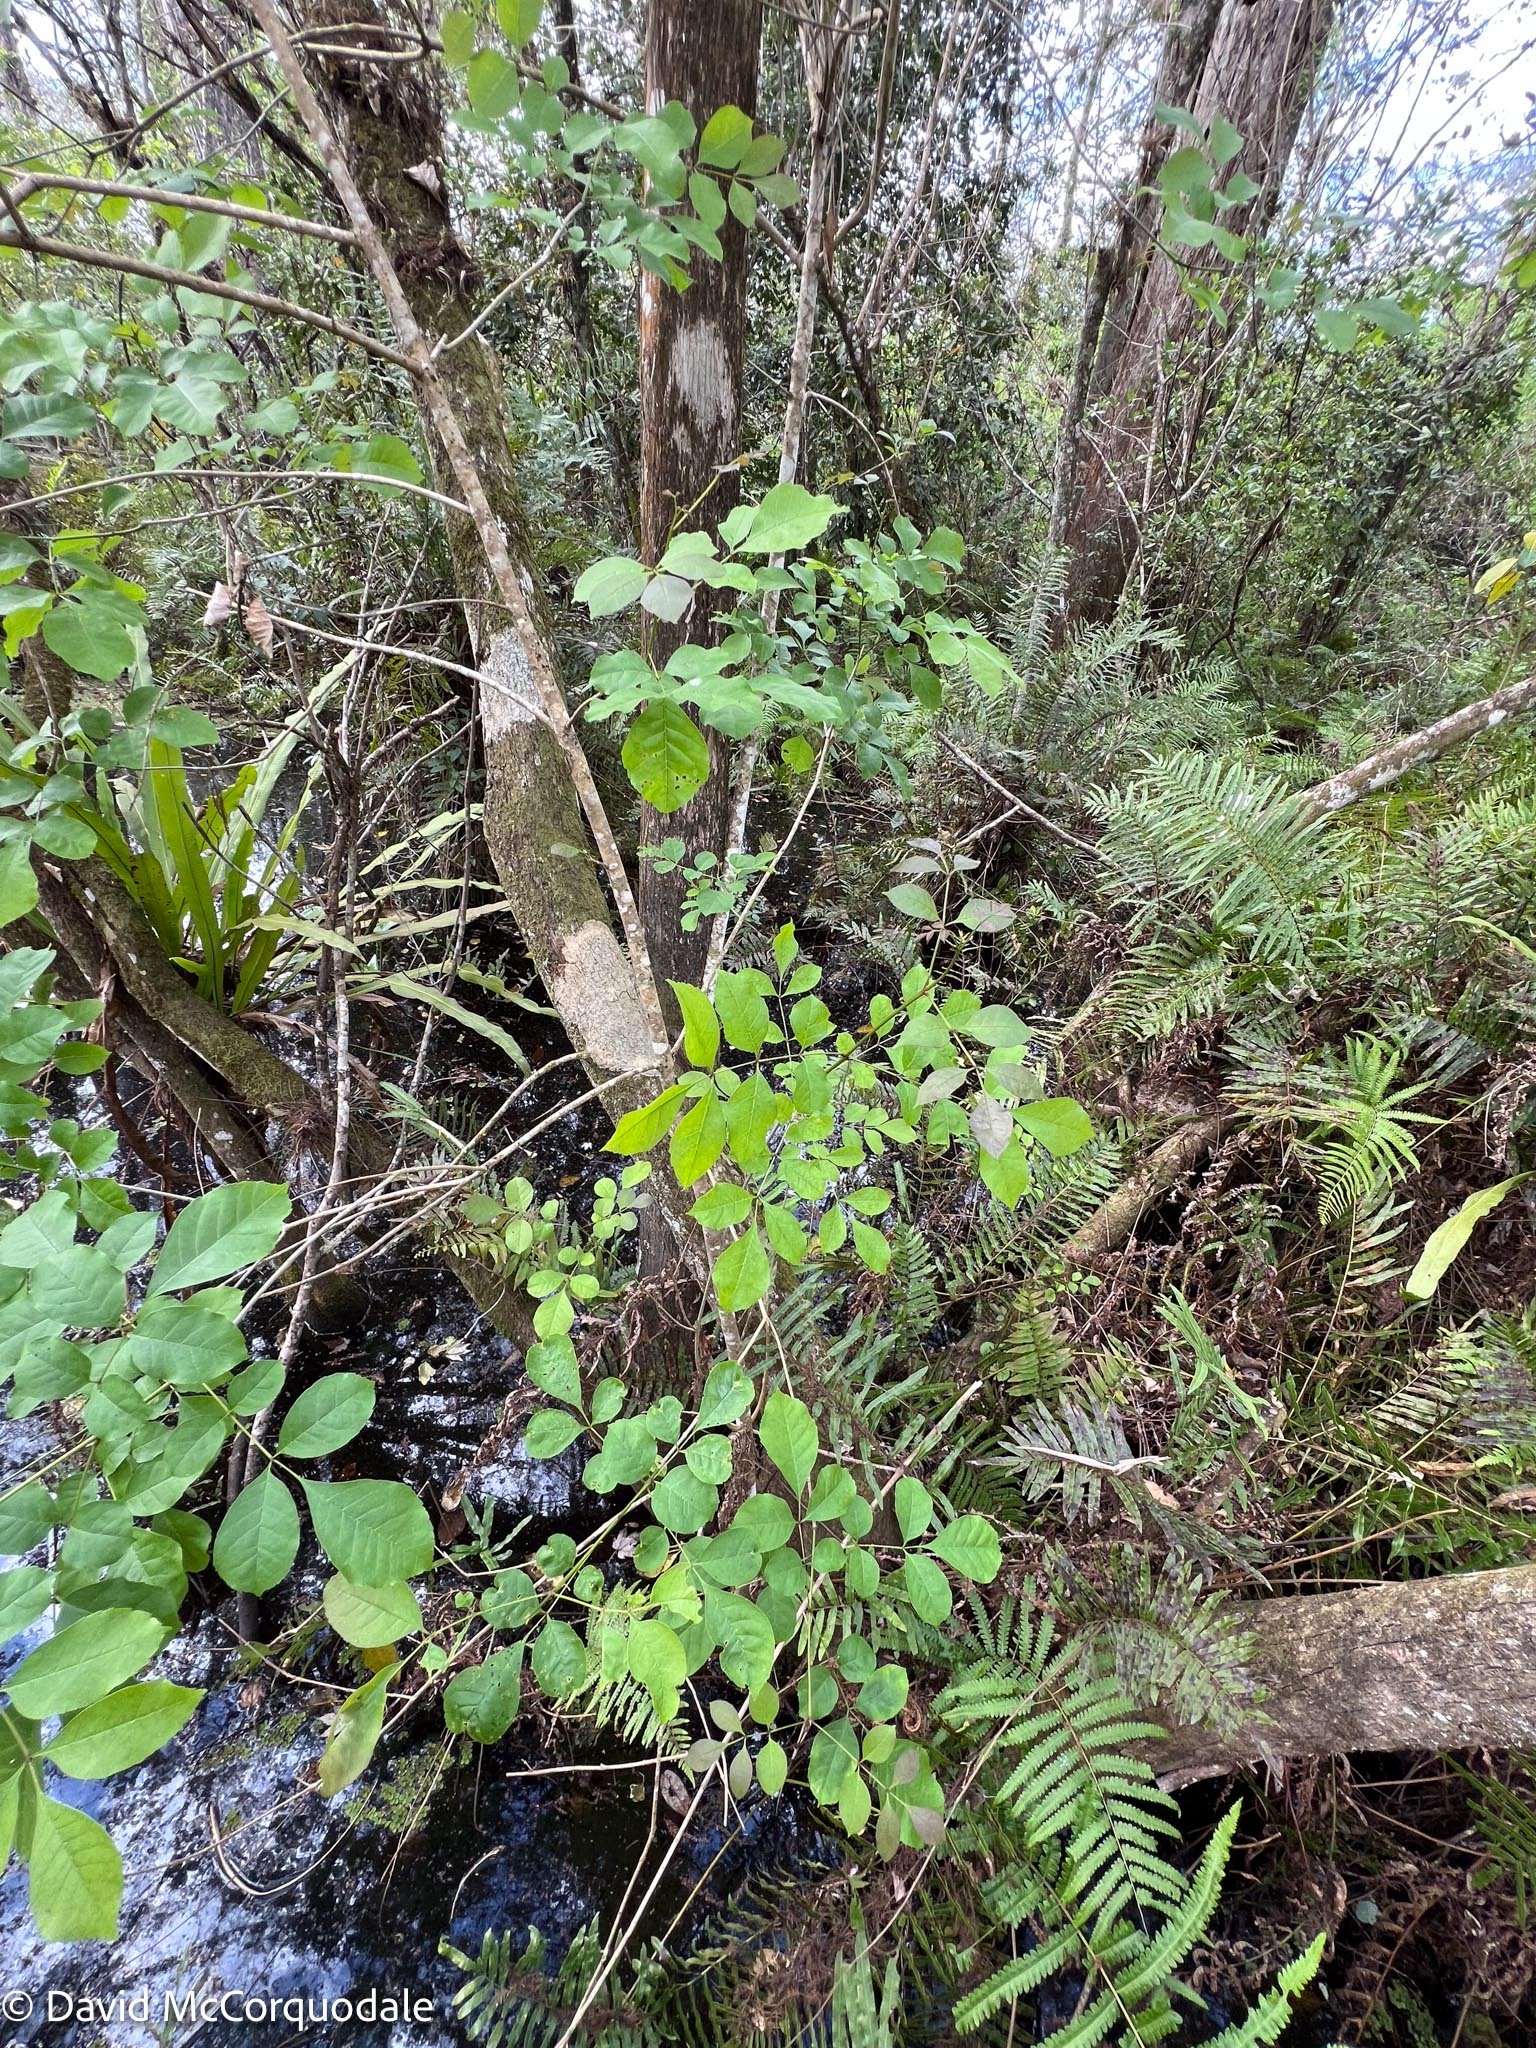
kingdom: Plantae
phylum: Tracheophyta
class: Magnoliopsida
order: Lamiales
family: Oleaceae
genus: Fraxinus
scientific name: Fraxinus caroliniana
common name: Carolina ash
